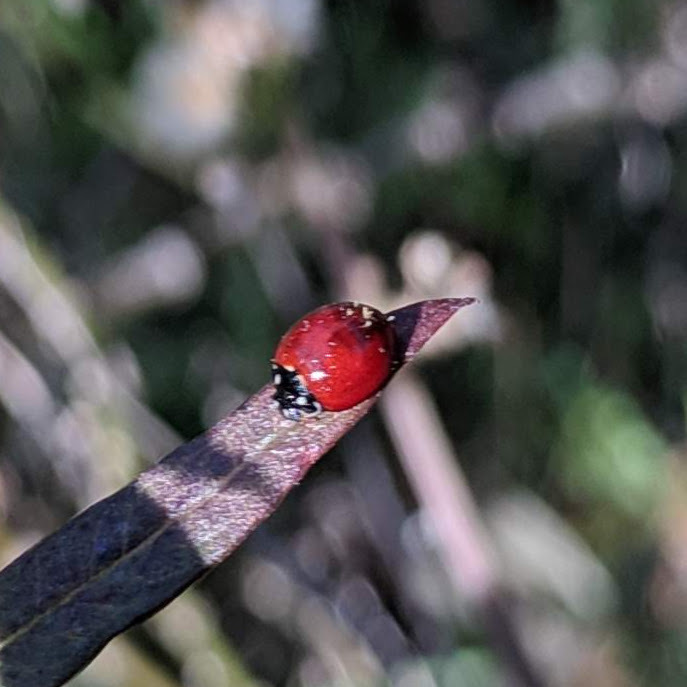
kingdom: Animalia
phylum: Arthropoda
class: Insecta
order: Coleoptera
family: Coccinellidae
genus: Cycloneda
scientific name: Cycloneda sanguinea
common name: Ladybird beetle
